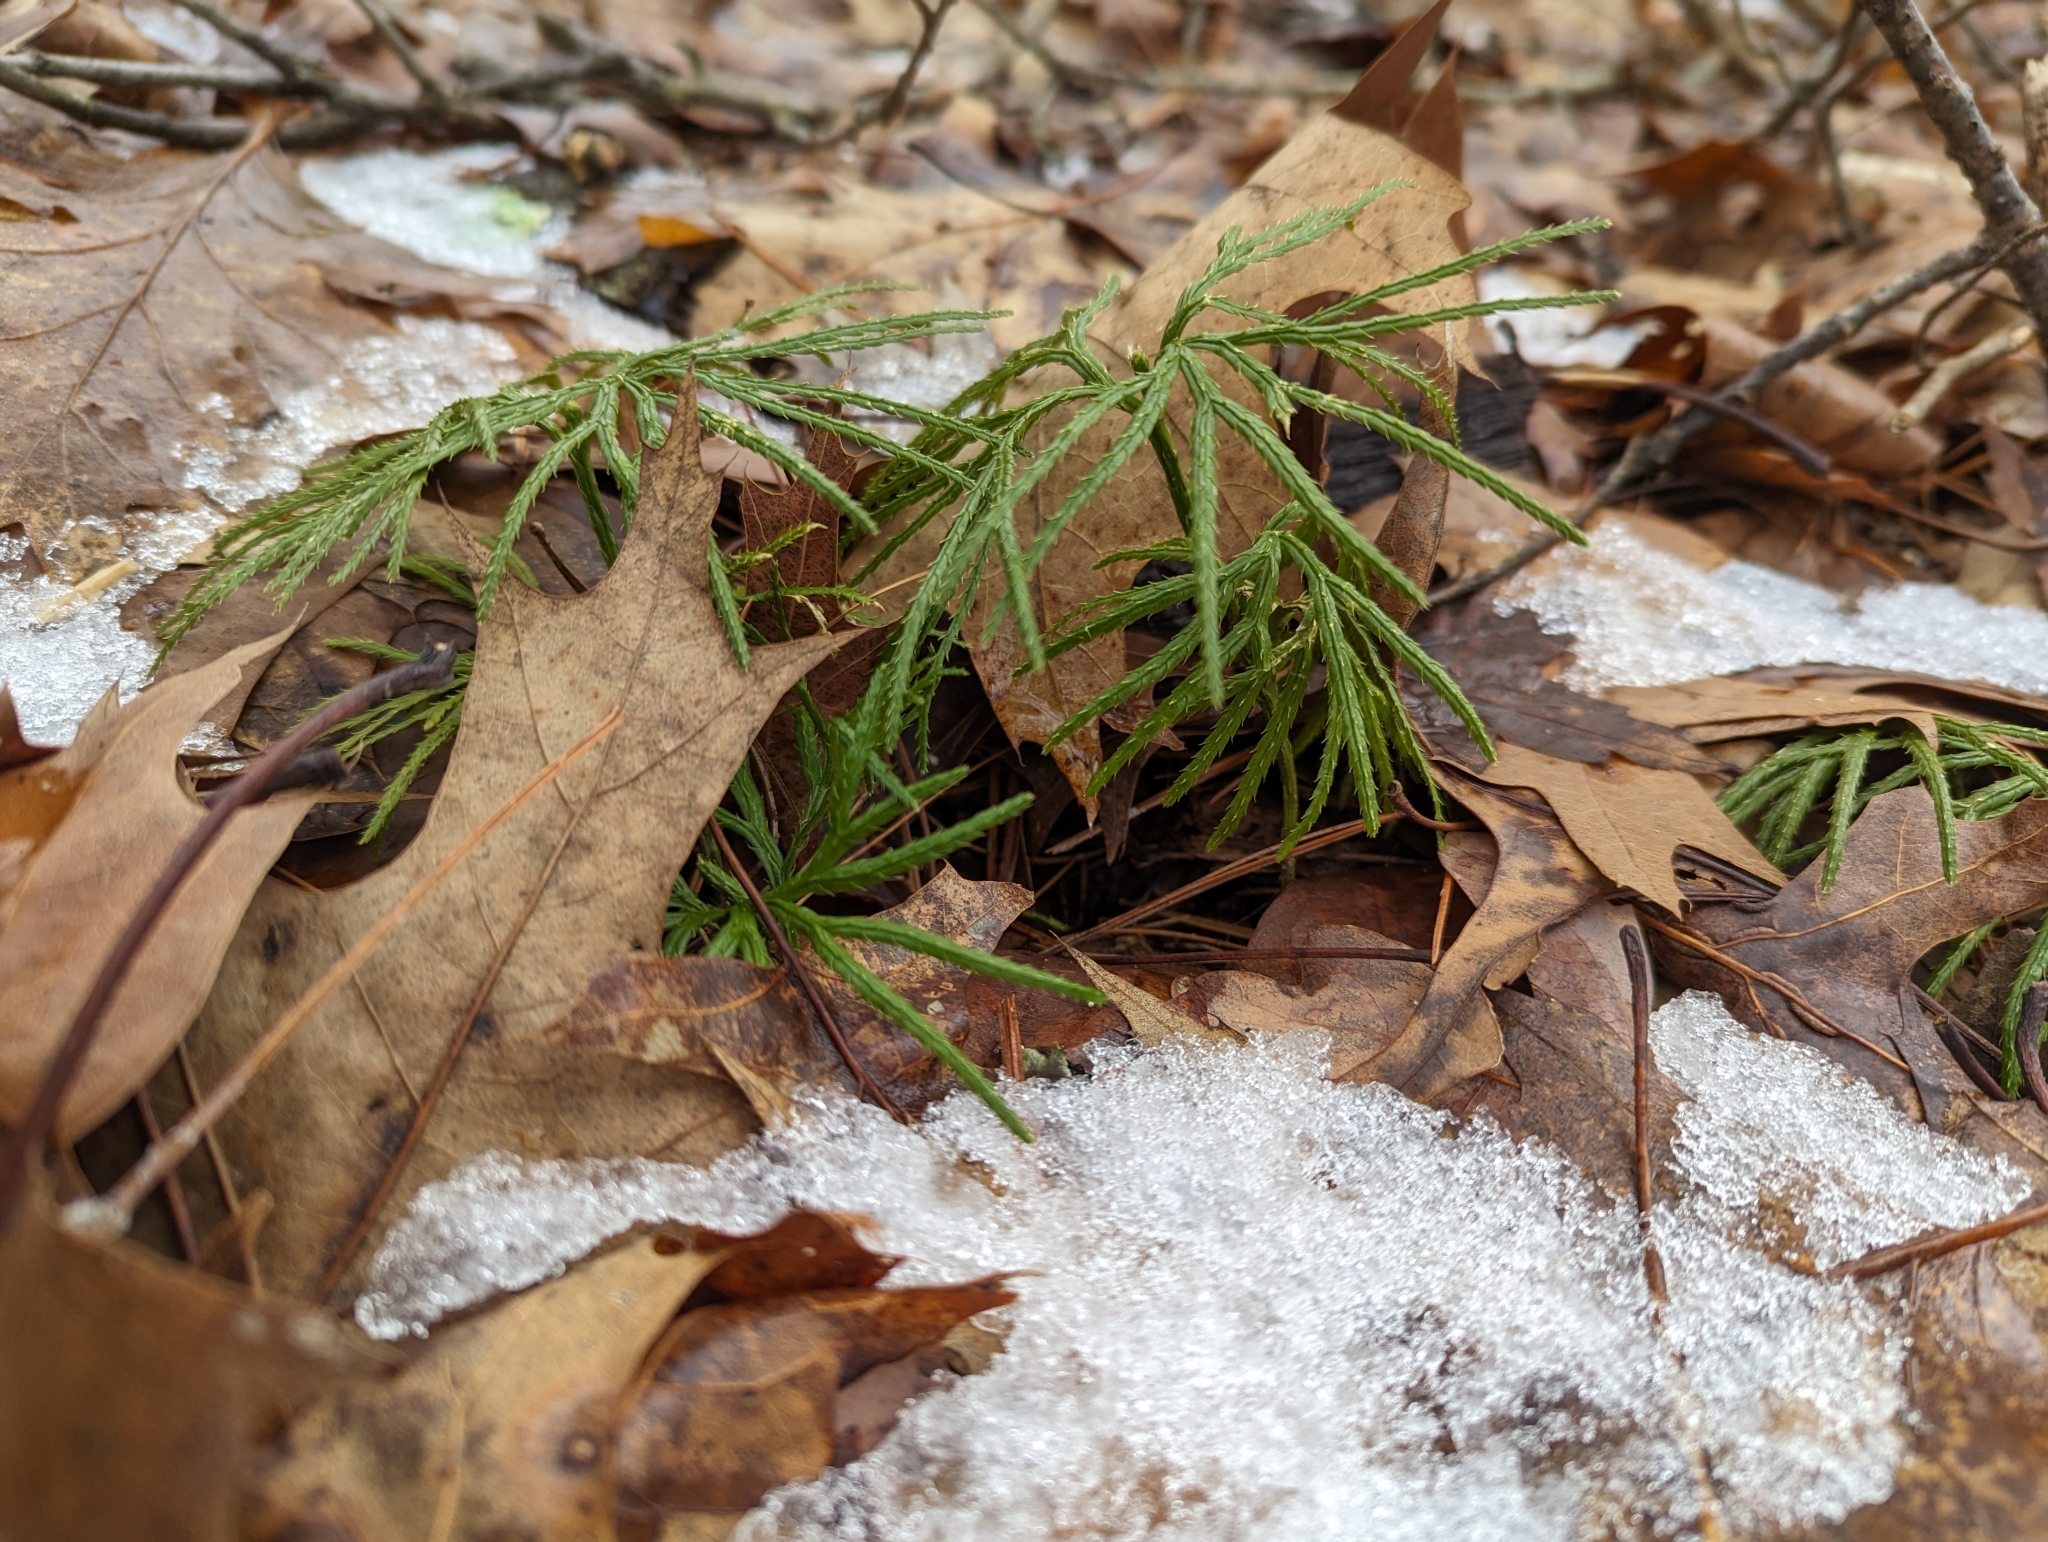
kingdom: Plantae
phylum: Tracheophyta
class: Lycopodiopsida
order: Lycopodiales
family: Lycopodiaceae
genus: Diphasiastrum
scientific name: Diphasiastrum digitatum
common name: Southern running-pine
